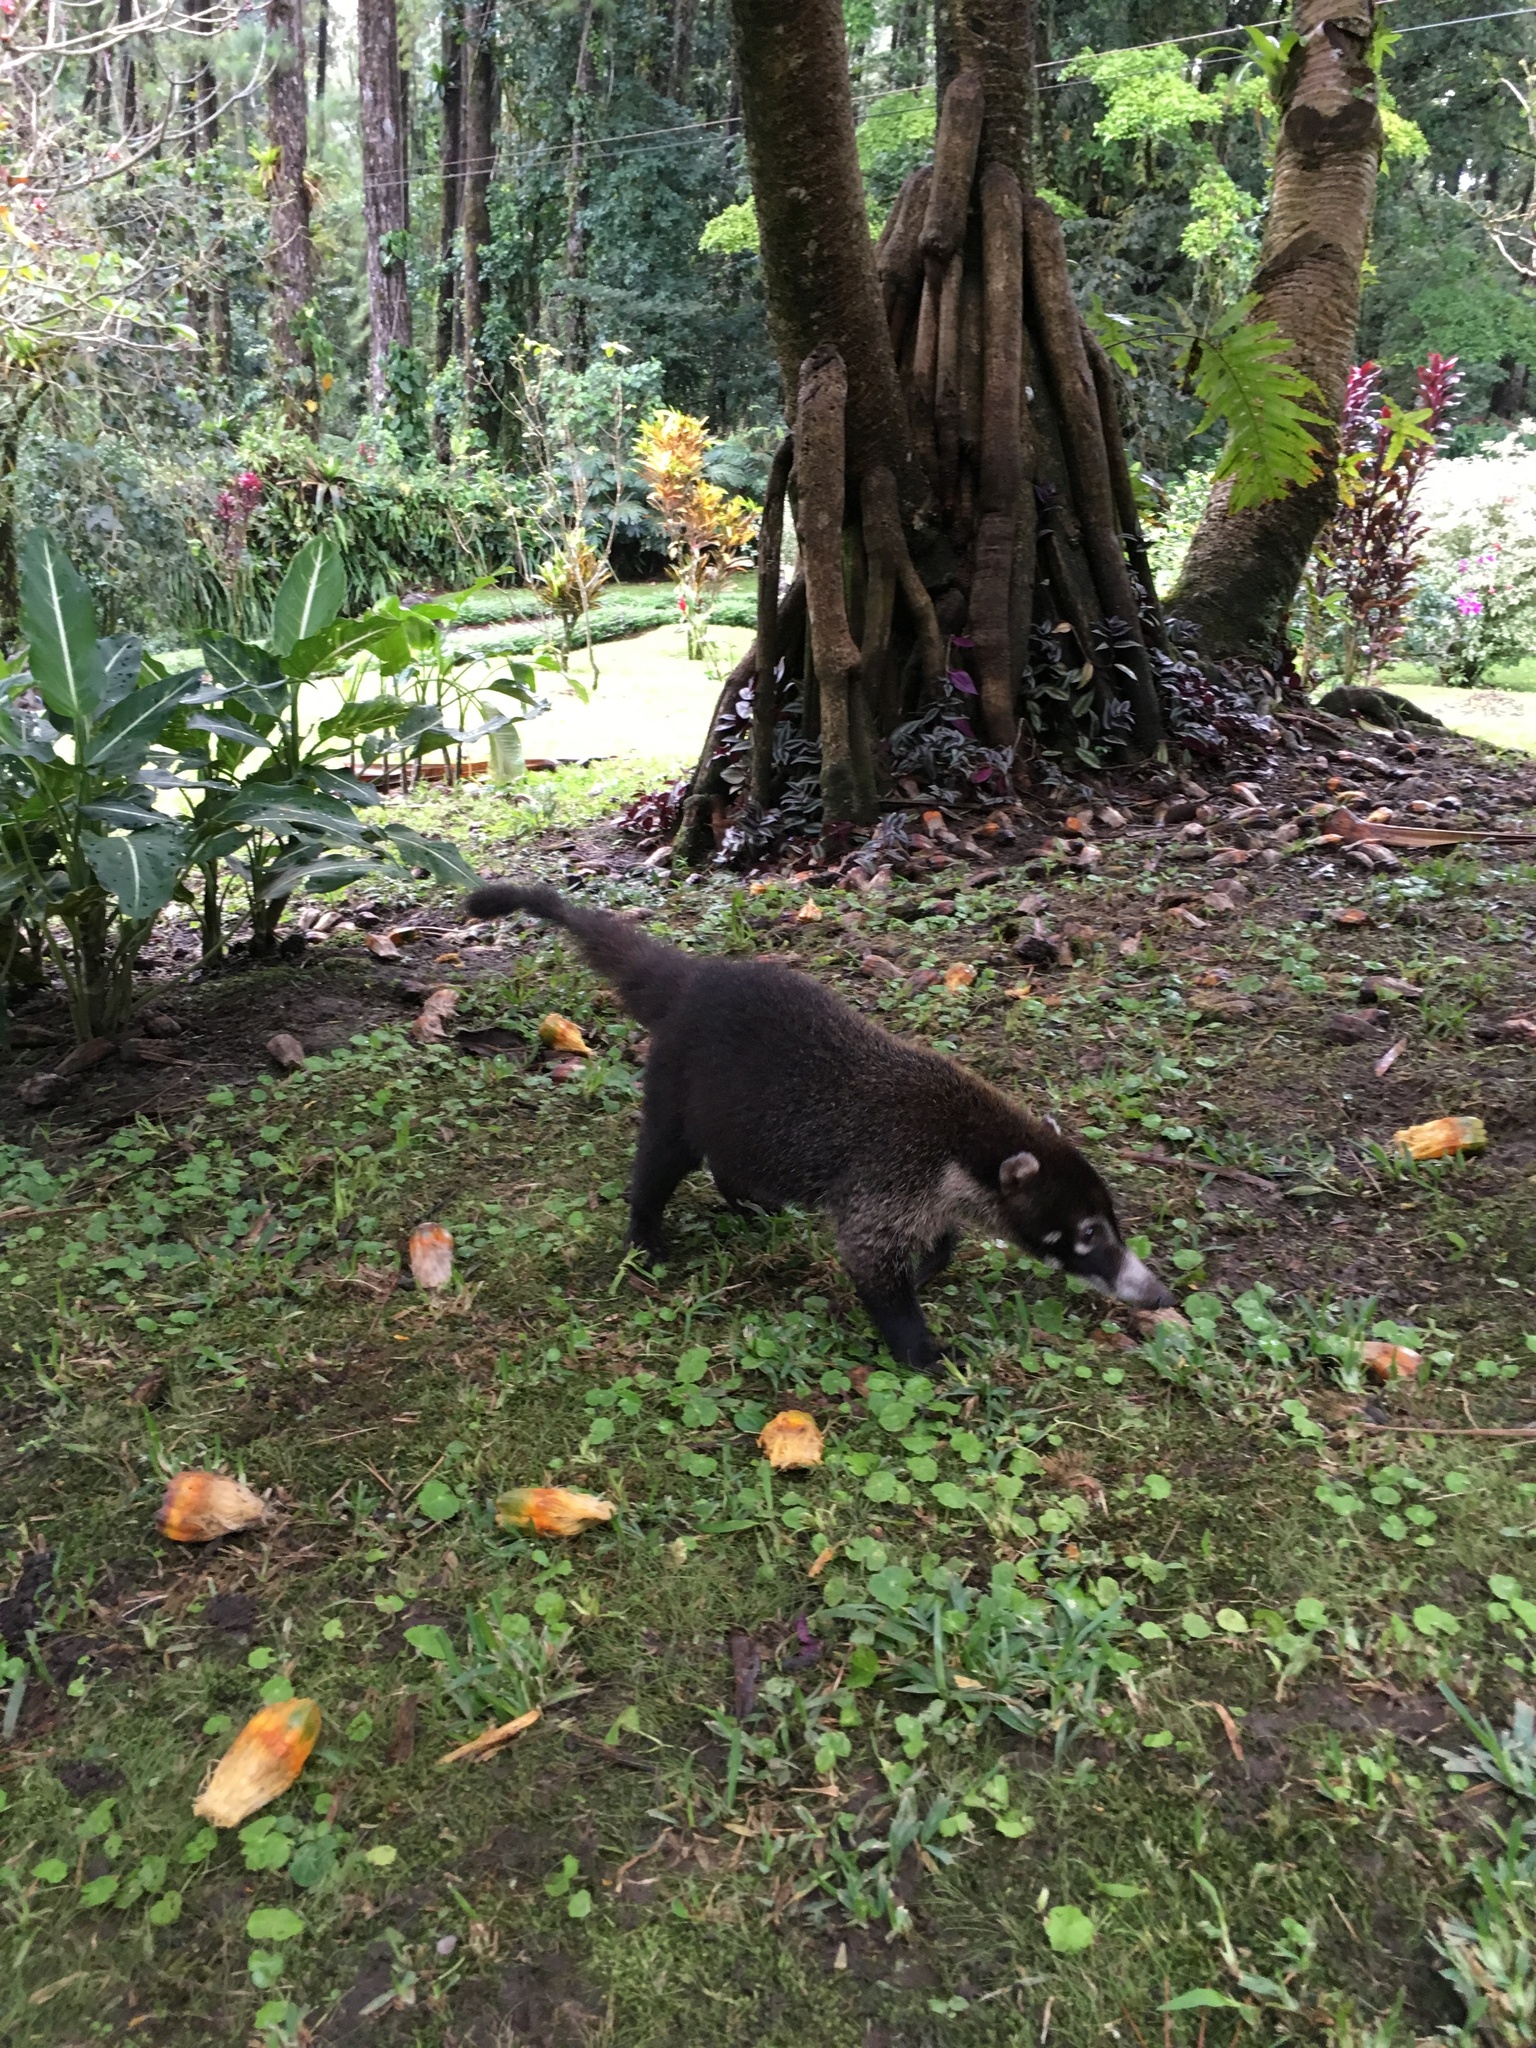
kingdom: Animalia
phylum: Chordata
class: Mammalia
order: Carnivora
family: Procyonidae
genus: Nasua
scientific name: Nasua narica
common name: White-nosed coati
